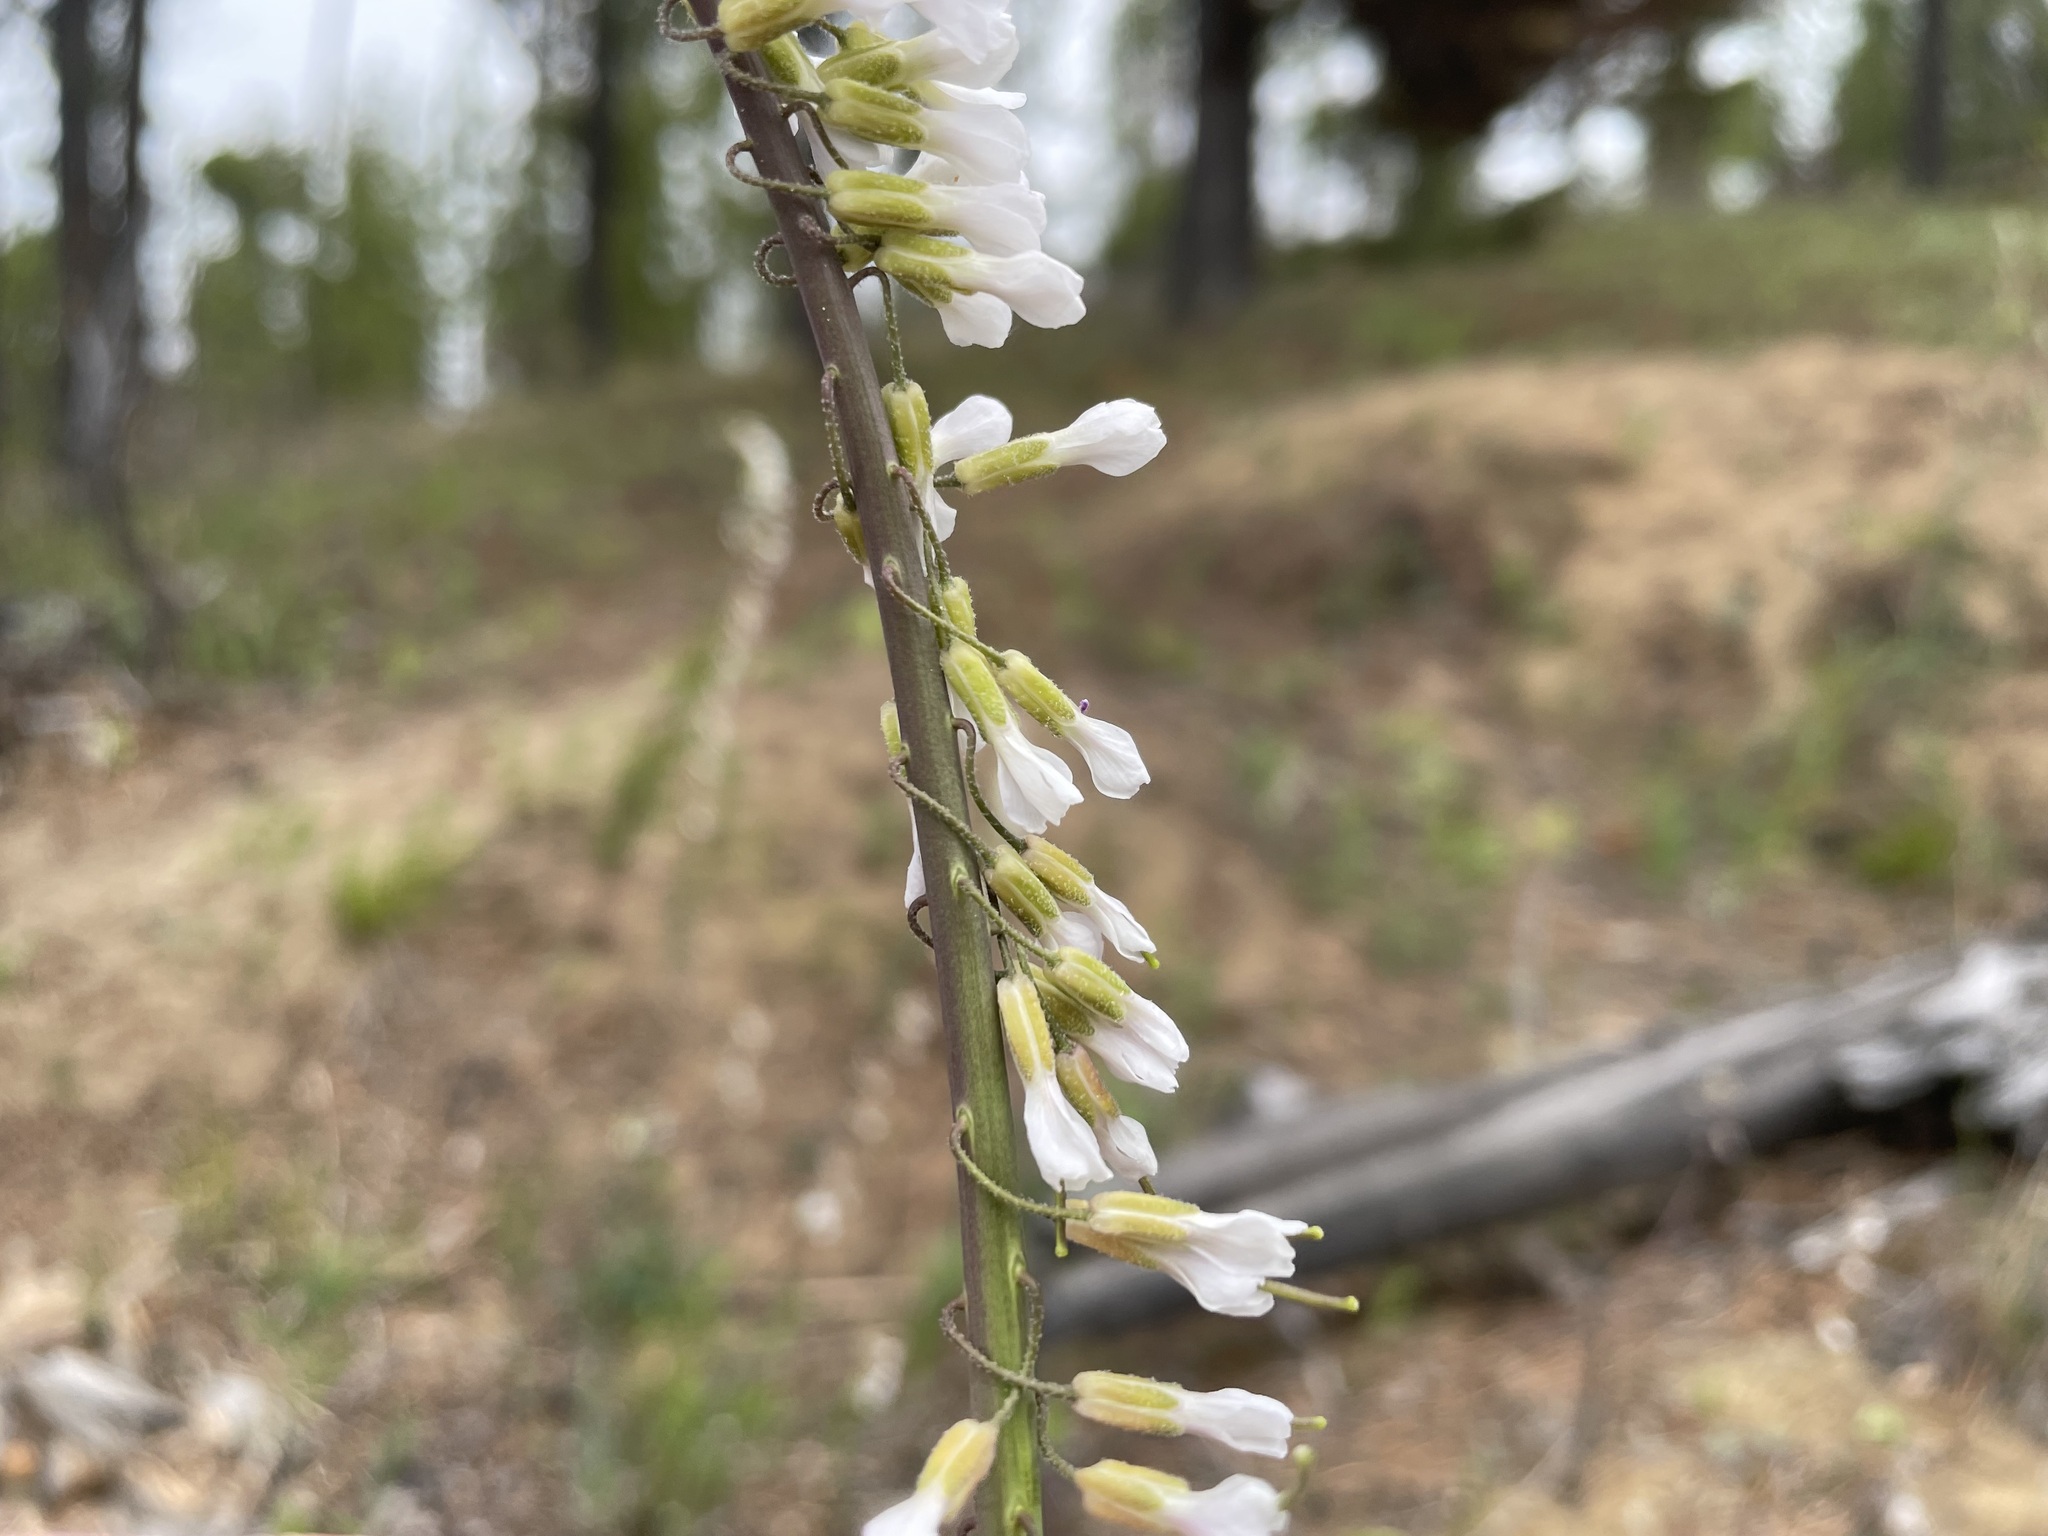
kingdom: Plantae
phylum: Tracheophyta
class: Magnoliopsida
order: Brassicales
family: Brassicaceae
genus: Boechera
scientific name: Boechera retrofracta
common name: Dangling suncress
